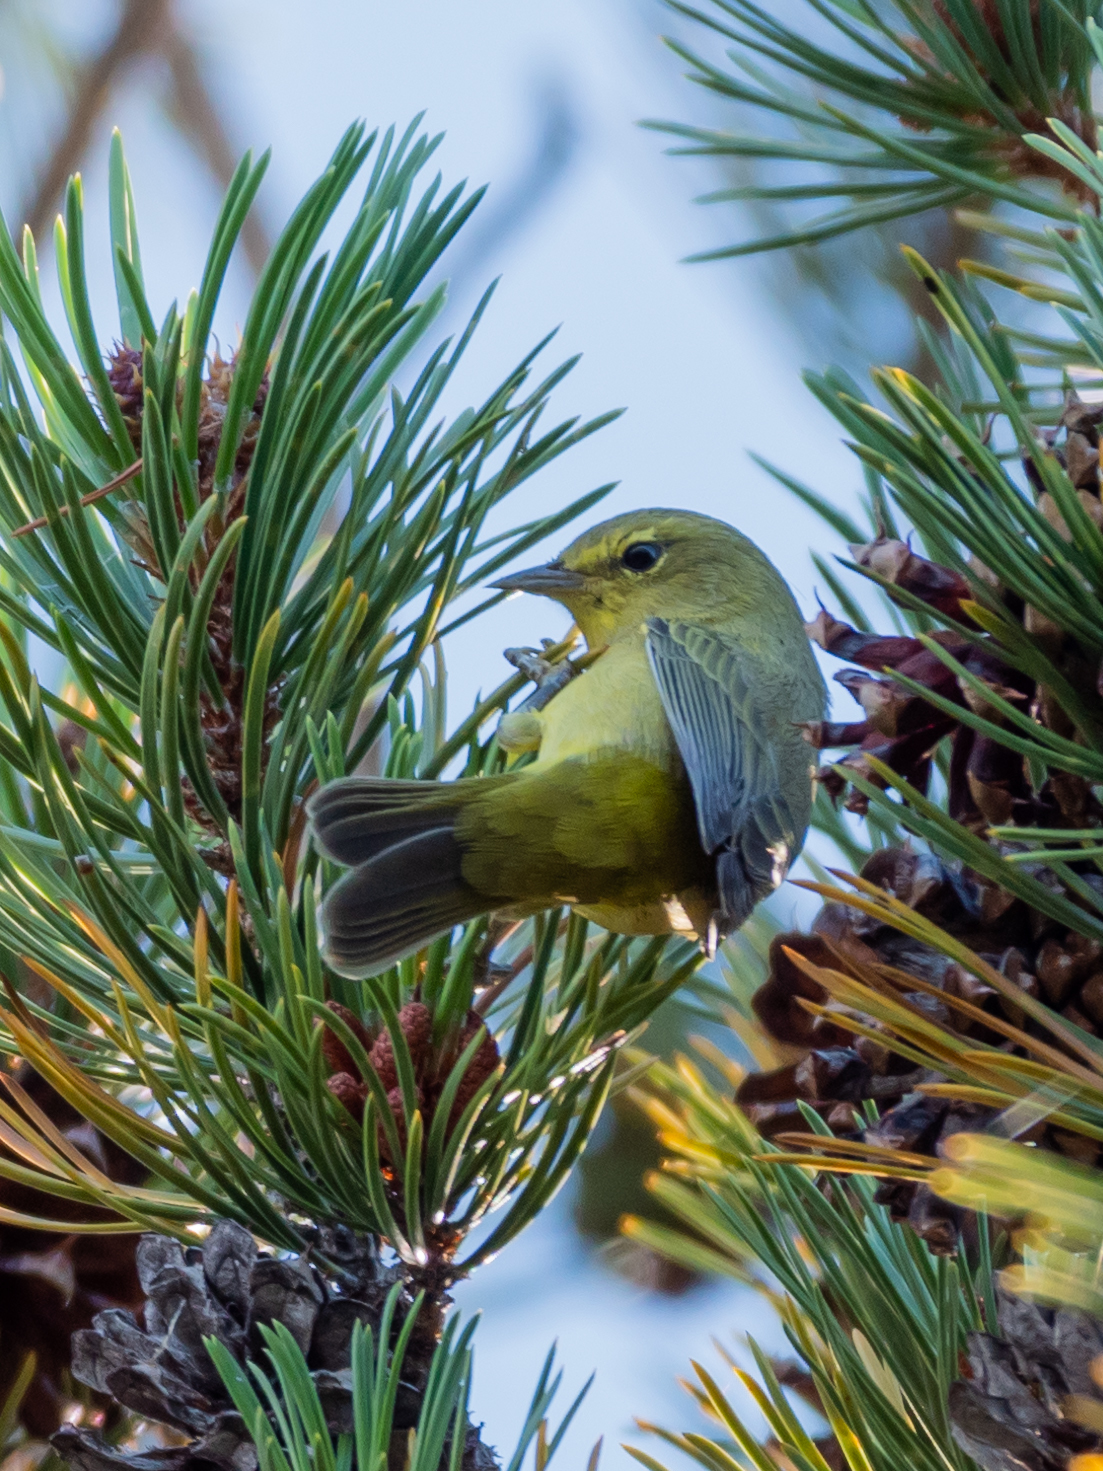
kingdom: Animalia
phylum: Chordata
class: Aves
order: Passeriformes
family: Parulidae
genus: Leiothlypis
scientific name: Leiothlypis celata
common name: Orange-crowned warbler
